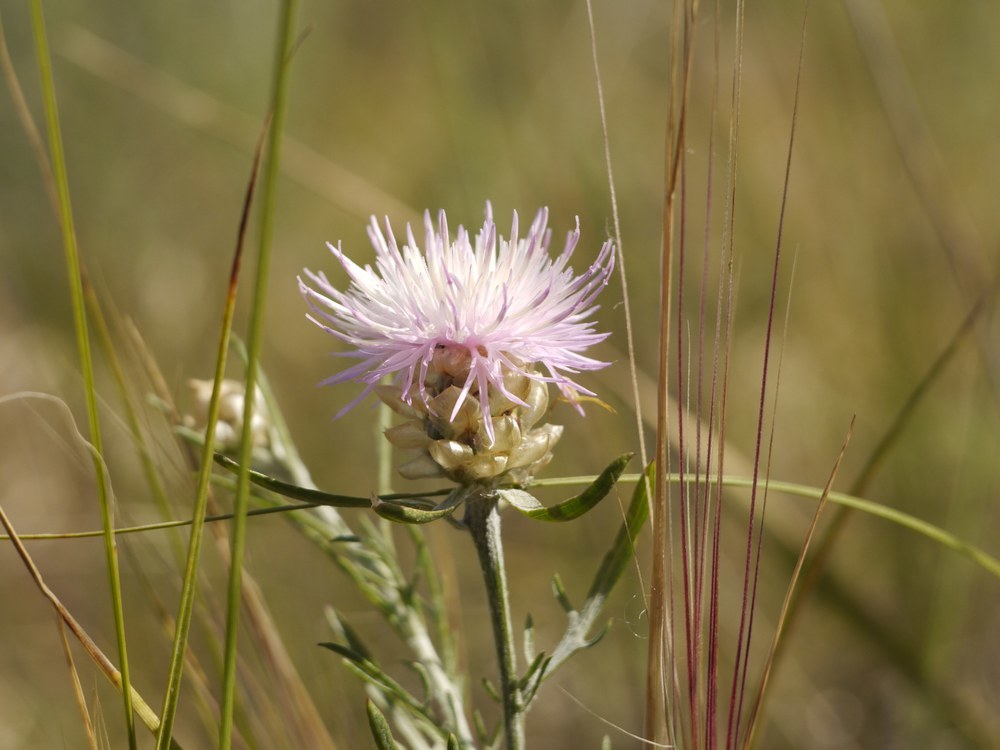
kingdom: Plantae
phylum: Tracheophyta
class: Magnoliopsida
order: Asterales
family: Asteraceae
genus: Centaurea
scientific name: Centaurea margaritalba
